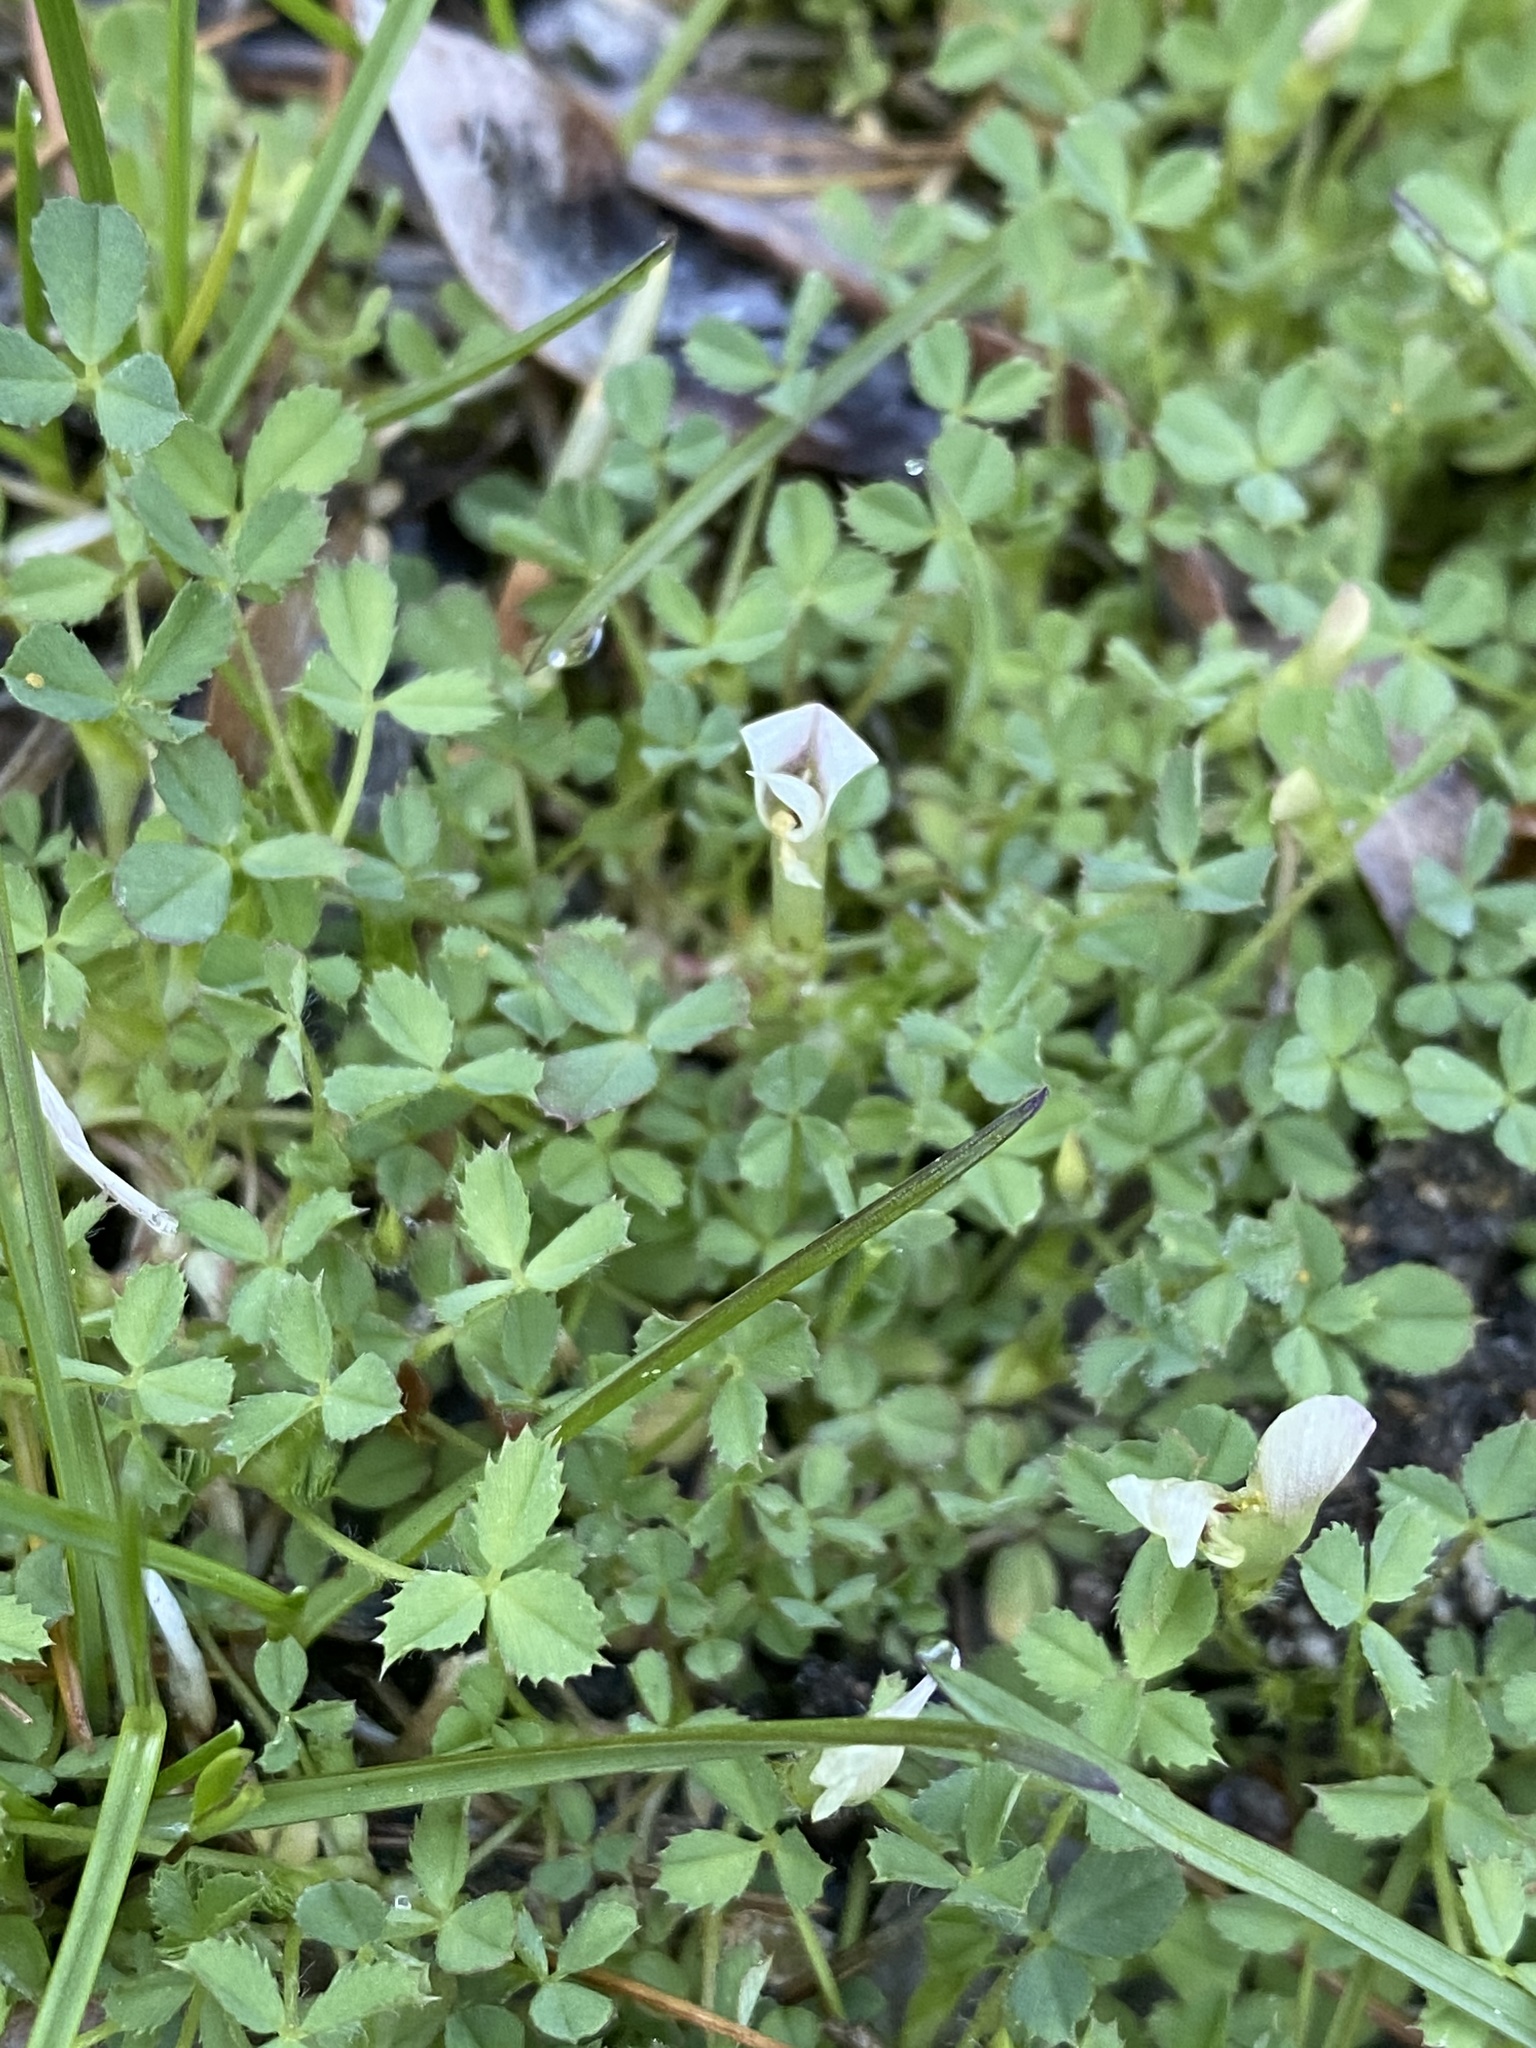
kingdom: Plantae
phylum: Tracheophyta
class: Magnoliopsida
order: Fabales
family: Fabaceae
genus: Trifolium
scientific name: Trifolium monanthum
